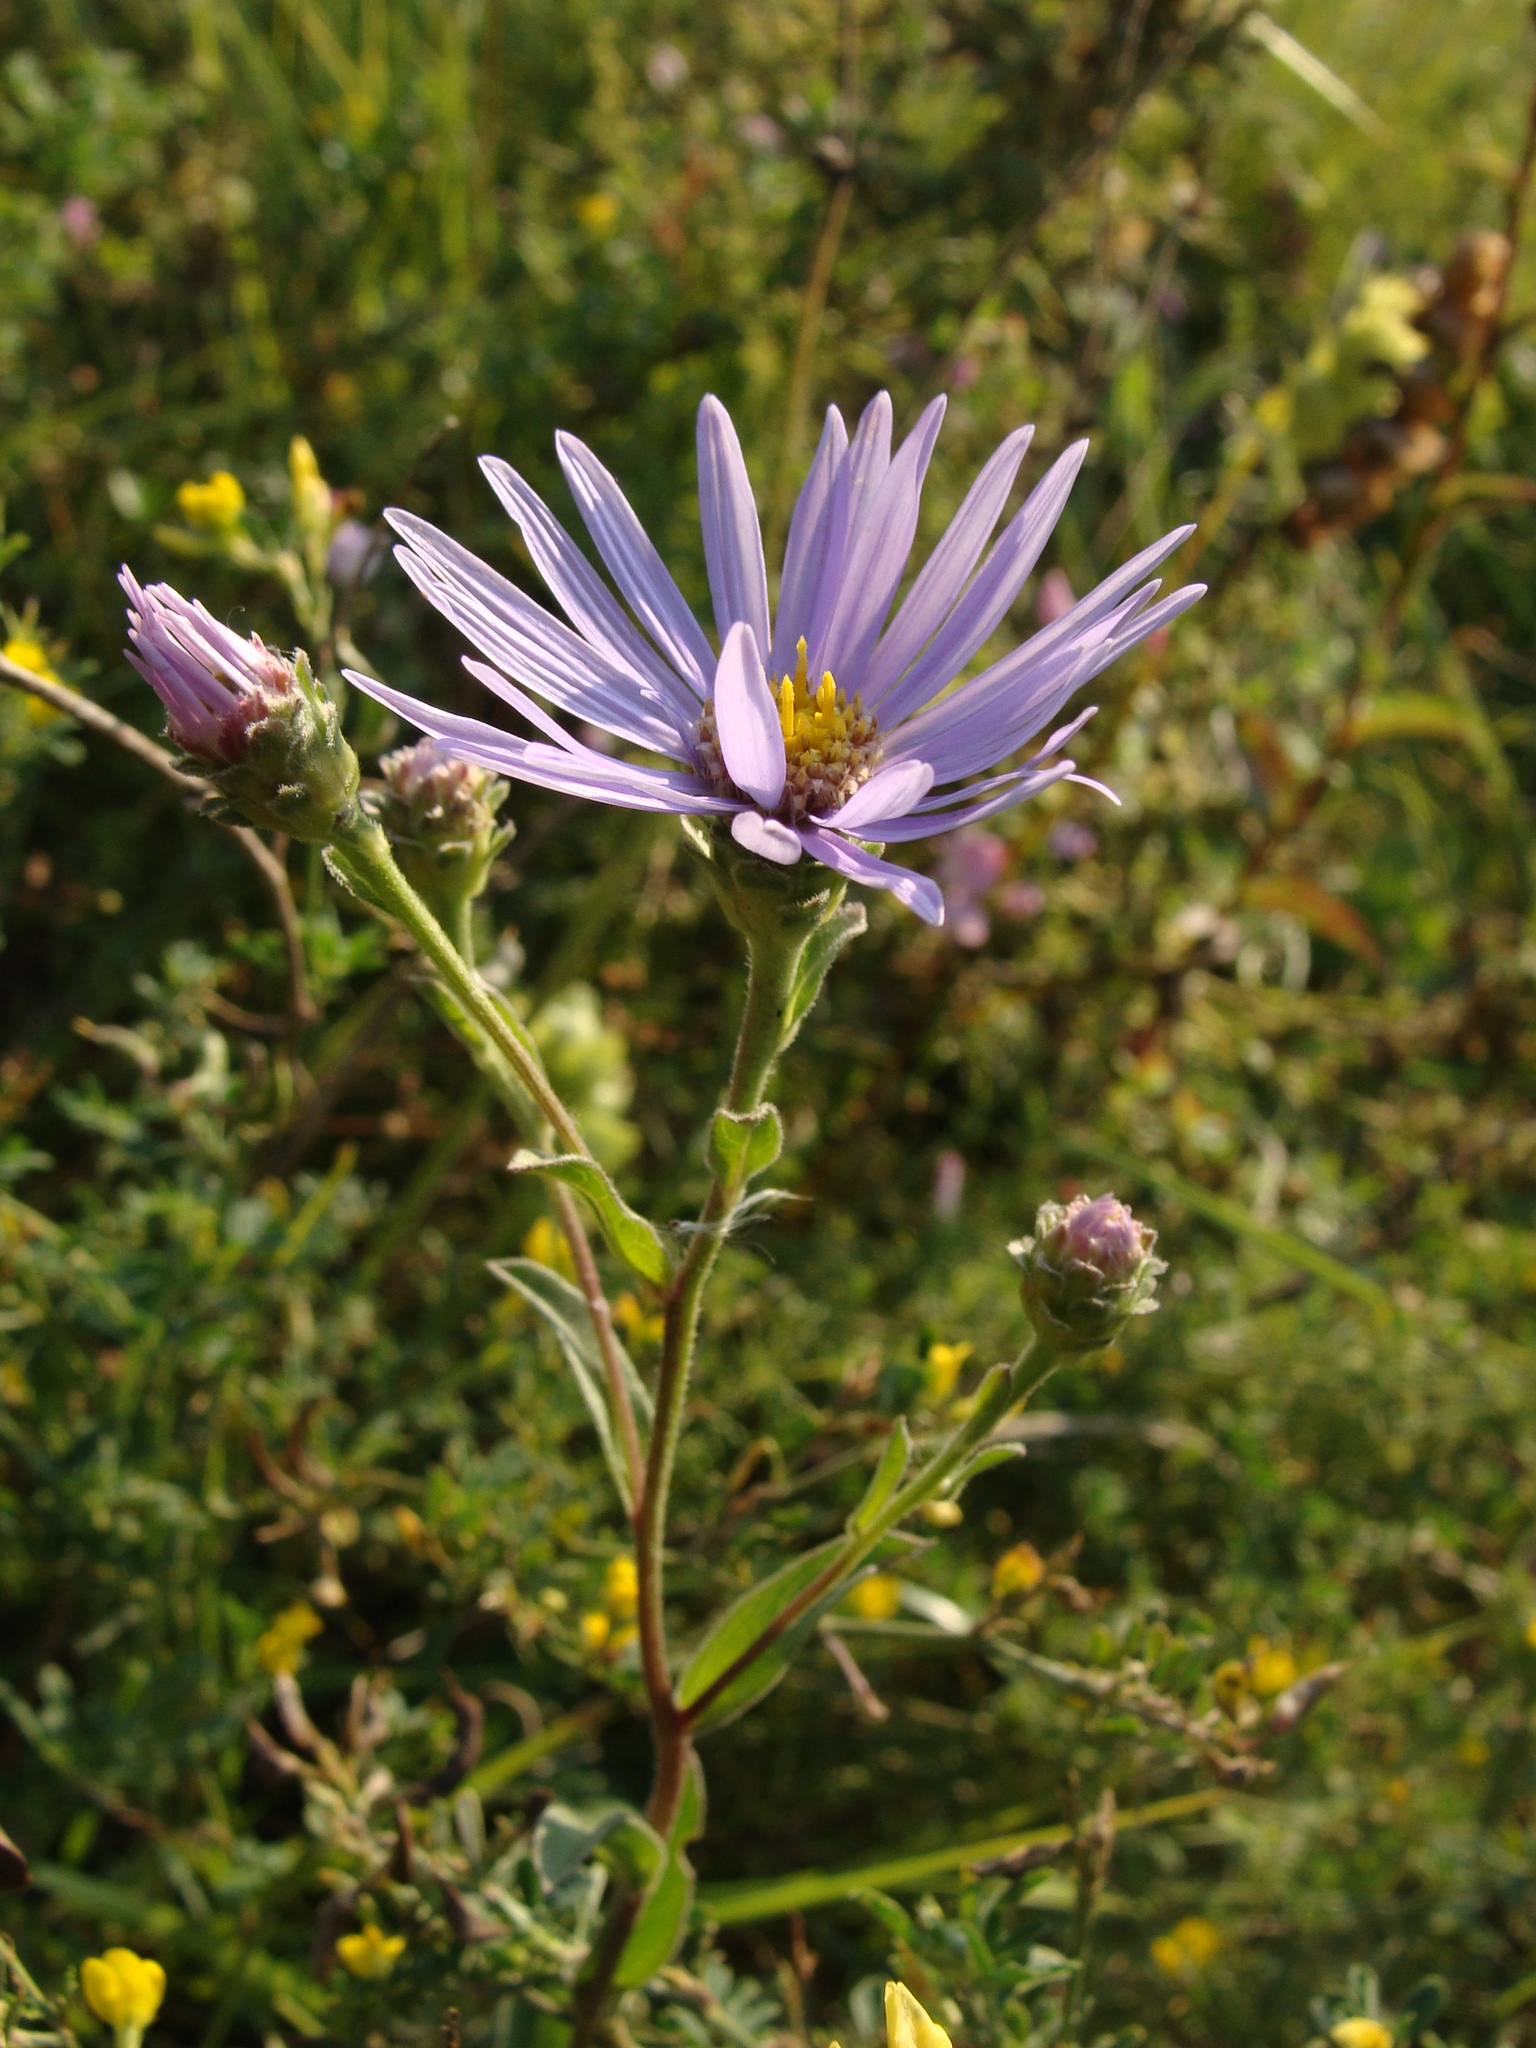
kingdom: Plantae
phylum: Tracheophyta
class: Magnoliopsida
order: Asterales
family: Asteraceae
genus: Aster
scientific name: Aster amellus
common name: European michaelmas daisy
